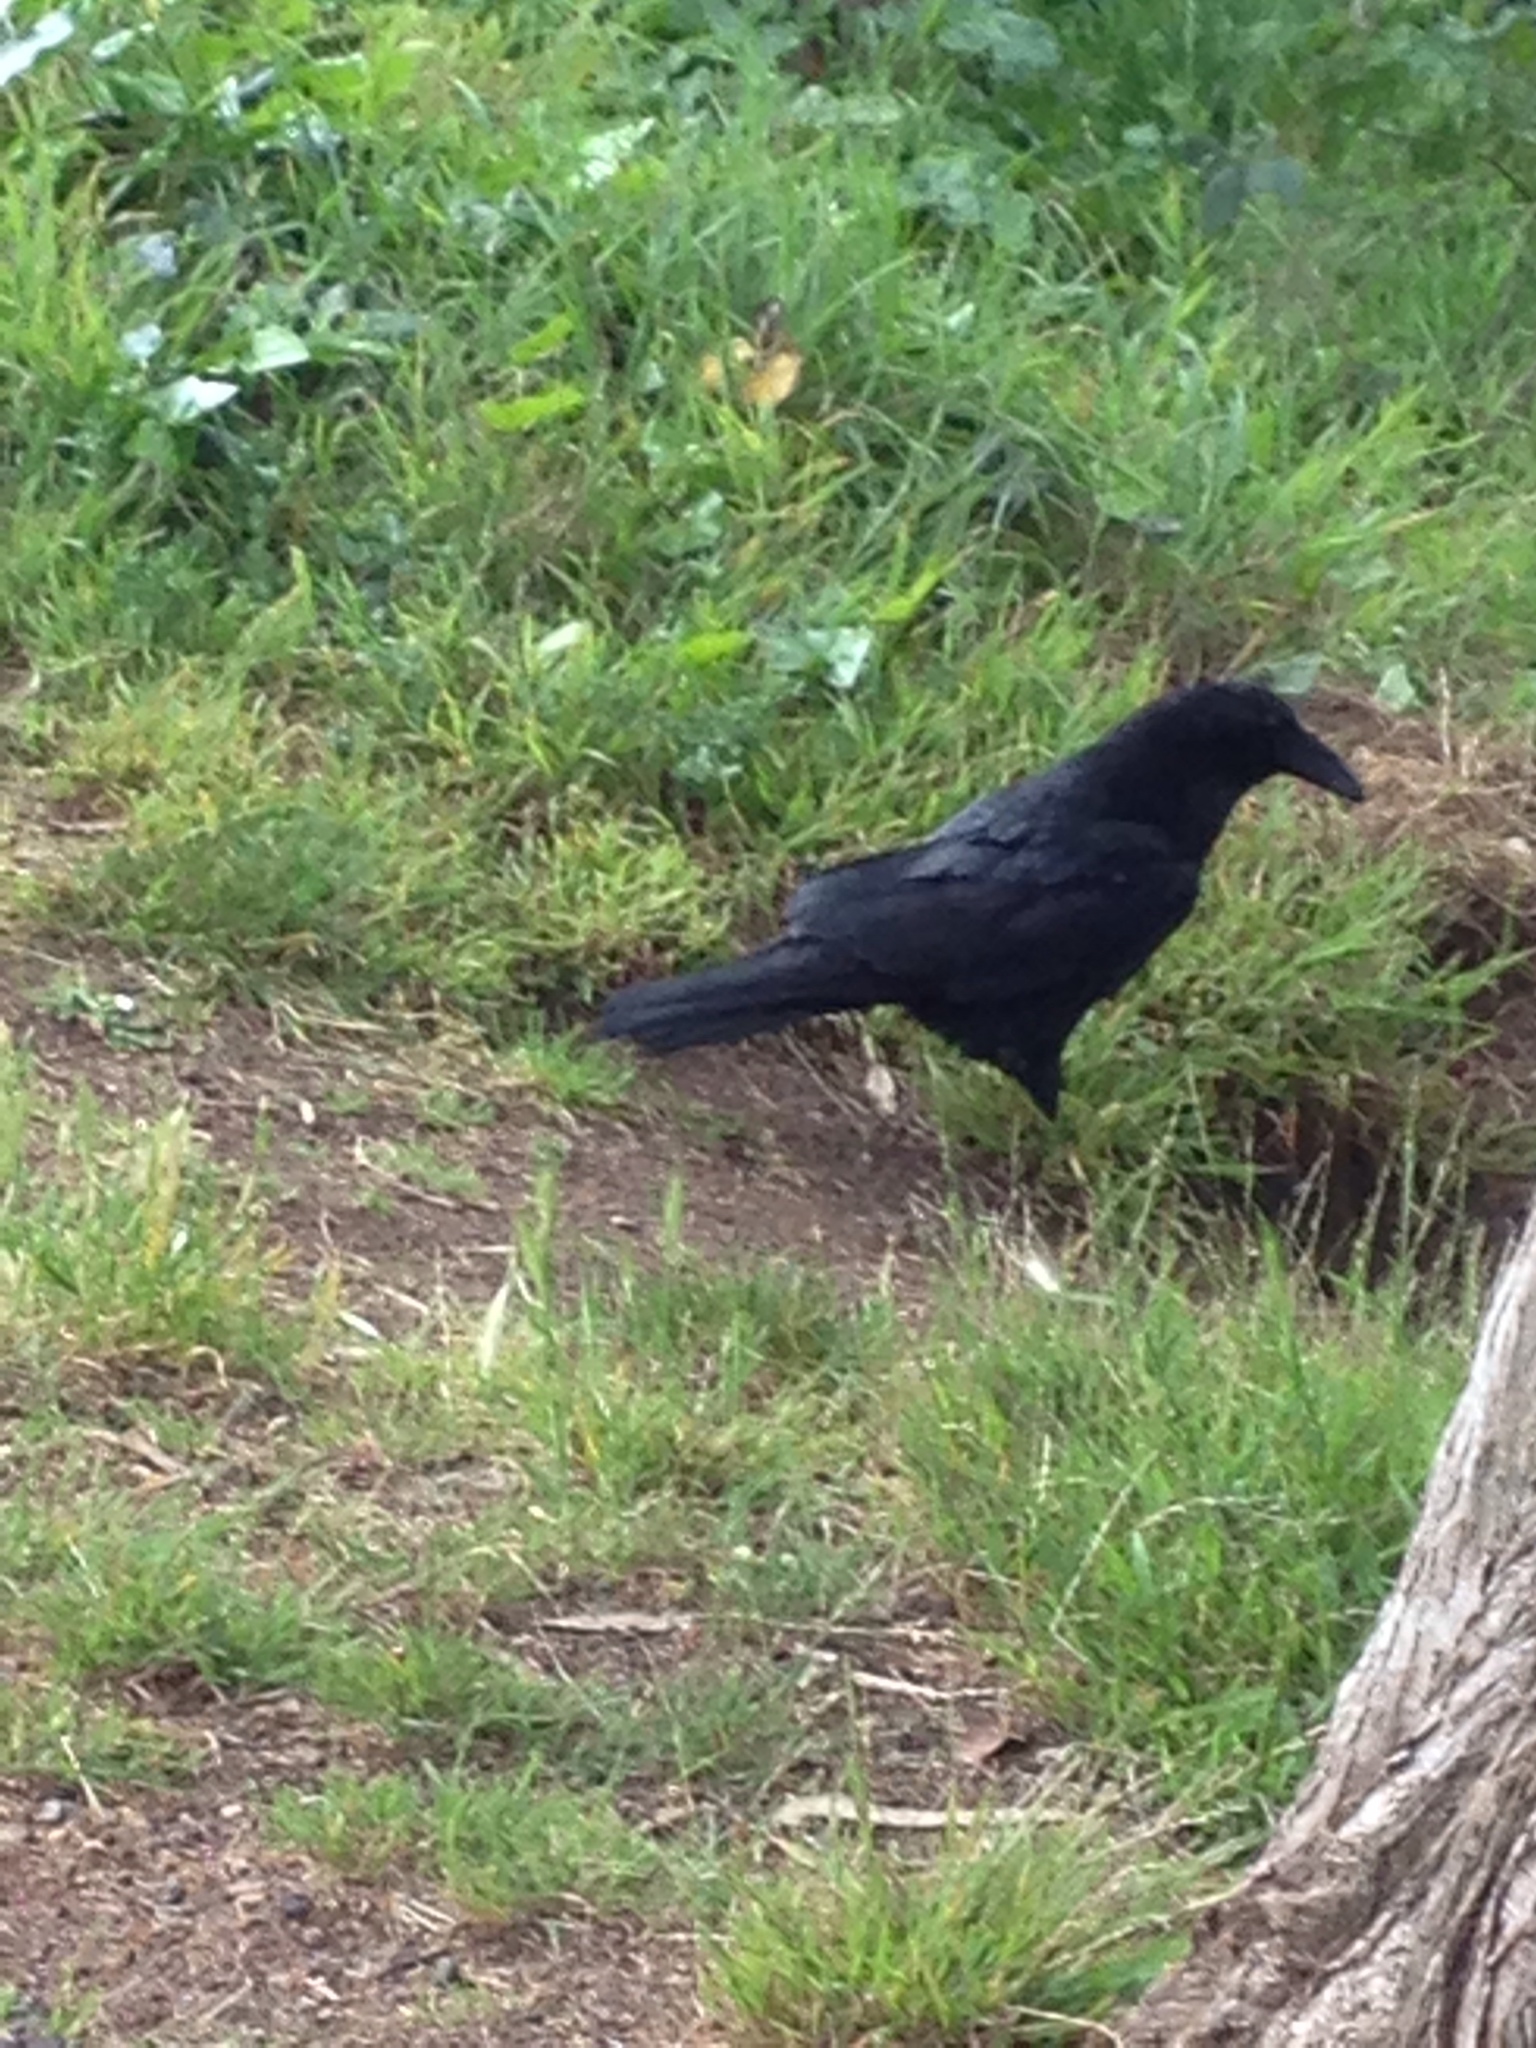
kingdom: Animalia
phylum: Chordata
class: Aves
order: Passeriformes
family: Corvidae
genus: Corvus
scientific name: Corvus corax
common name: Common raven
